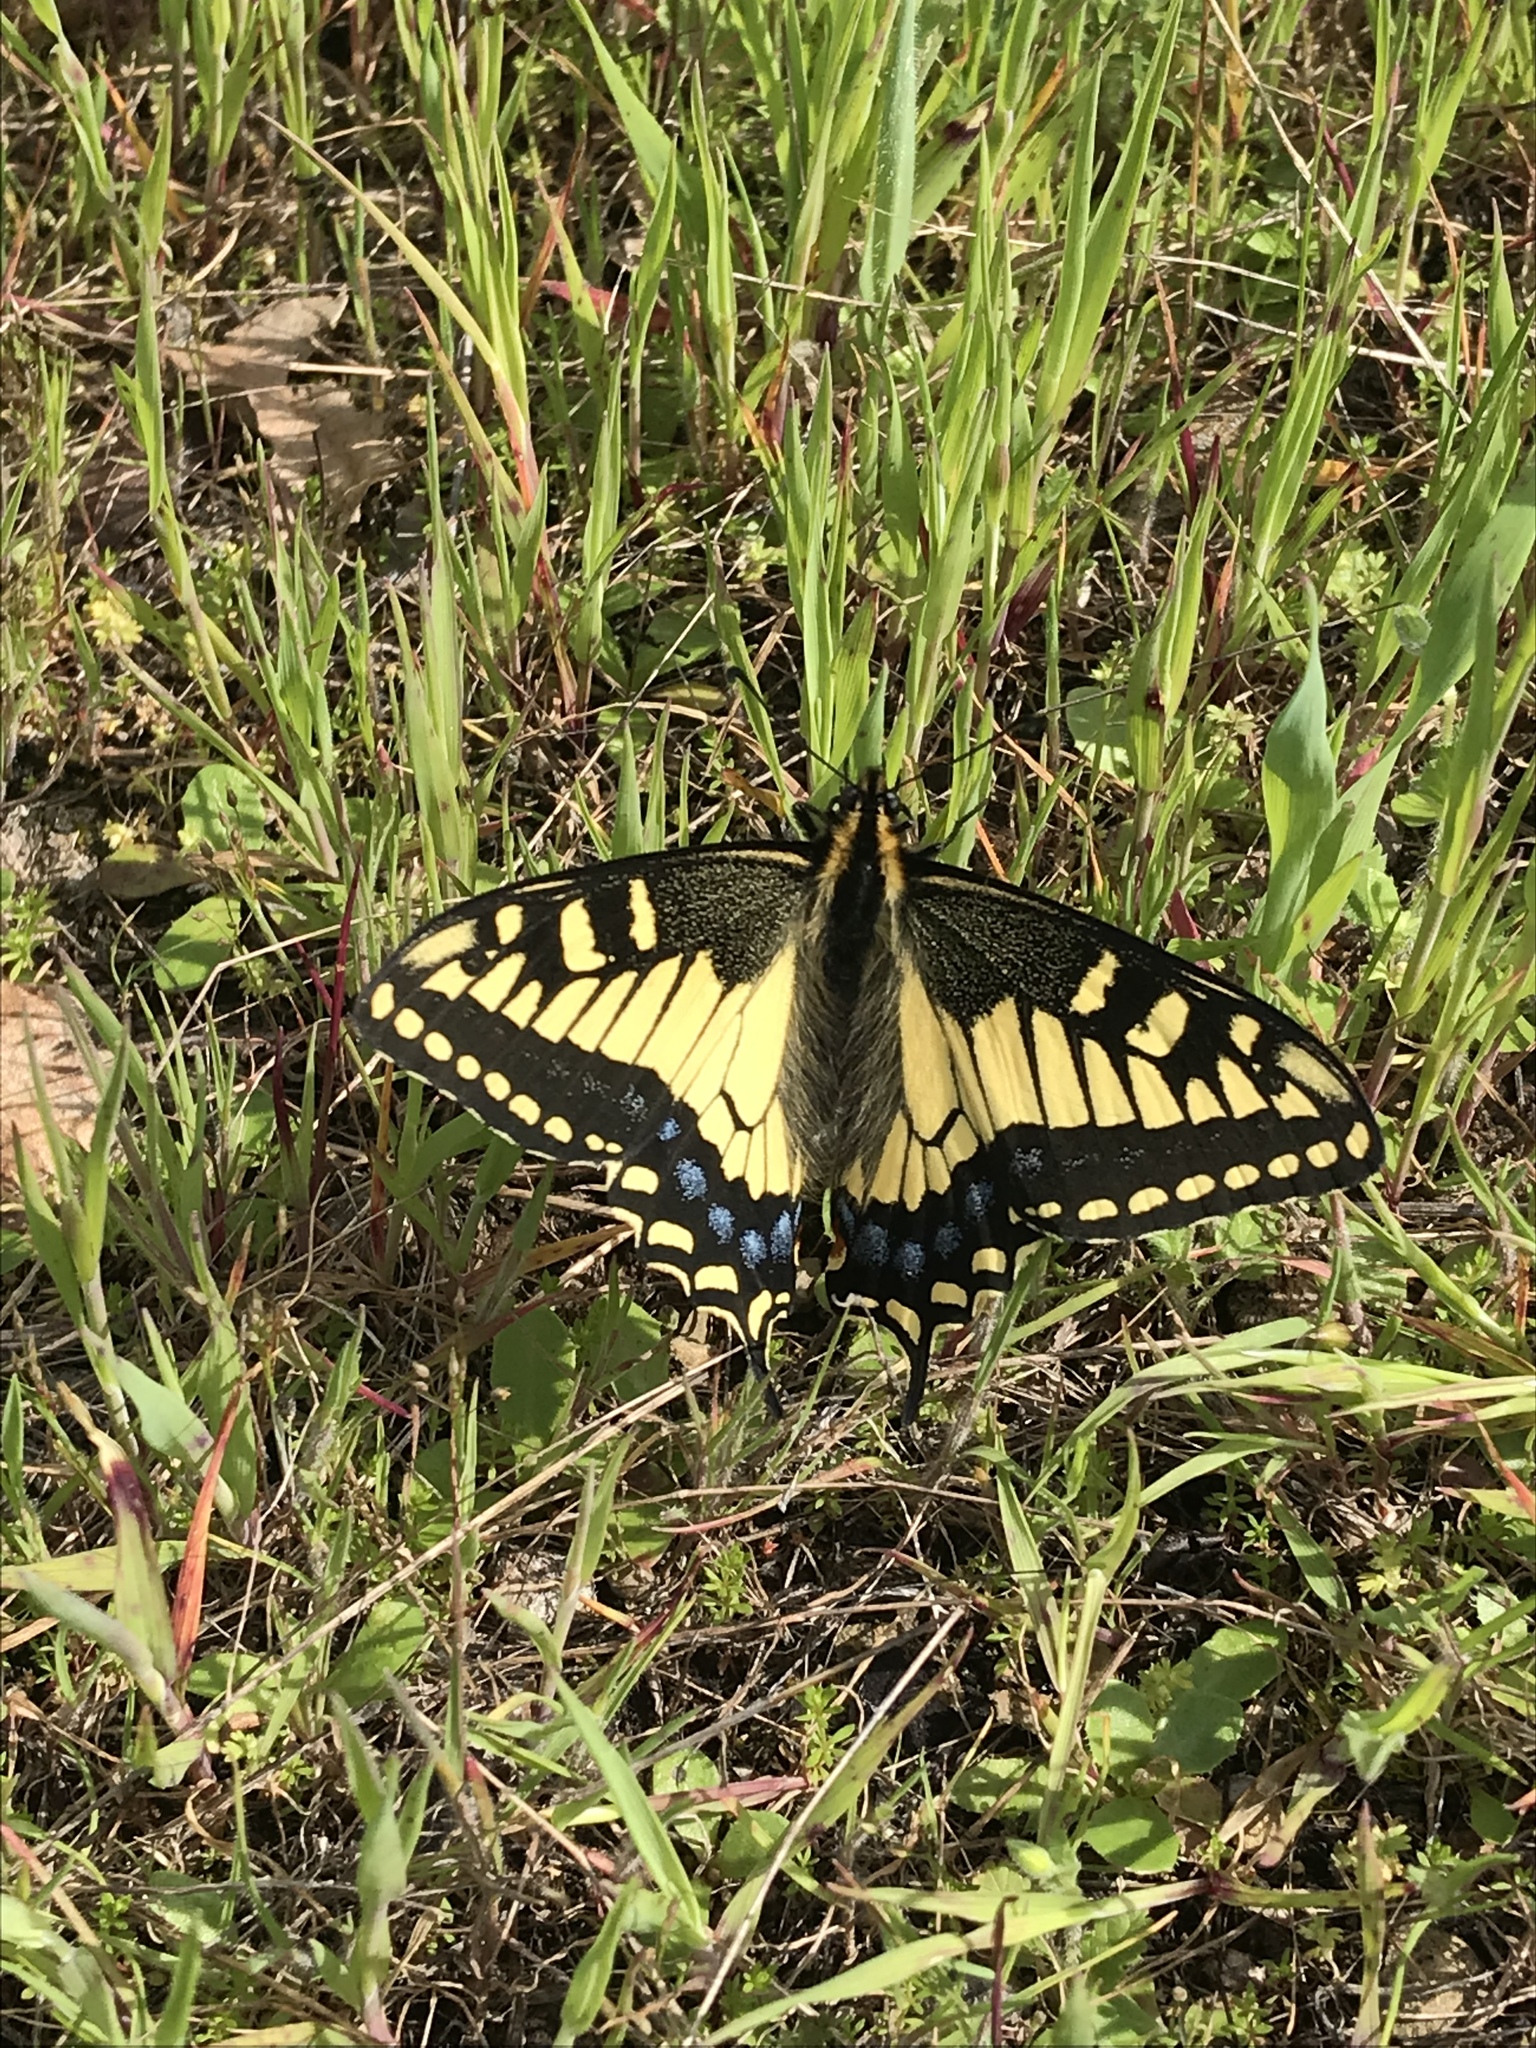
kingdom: Animalia
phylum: Arthropoda
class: Insecta
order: Lepidoptera
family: Papilionidae
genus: Papilio
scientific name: Papilio zelicaon
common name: Anise swallowtail
